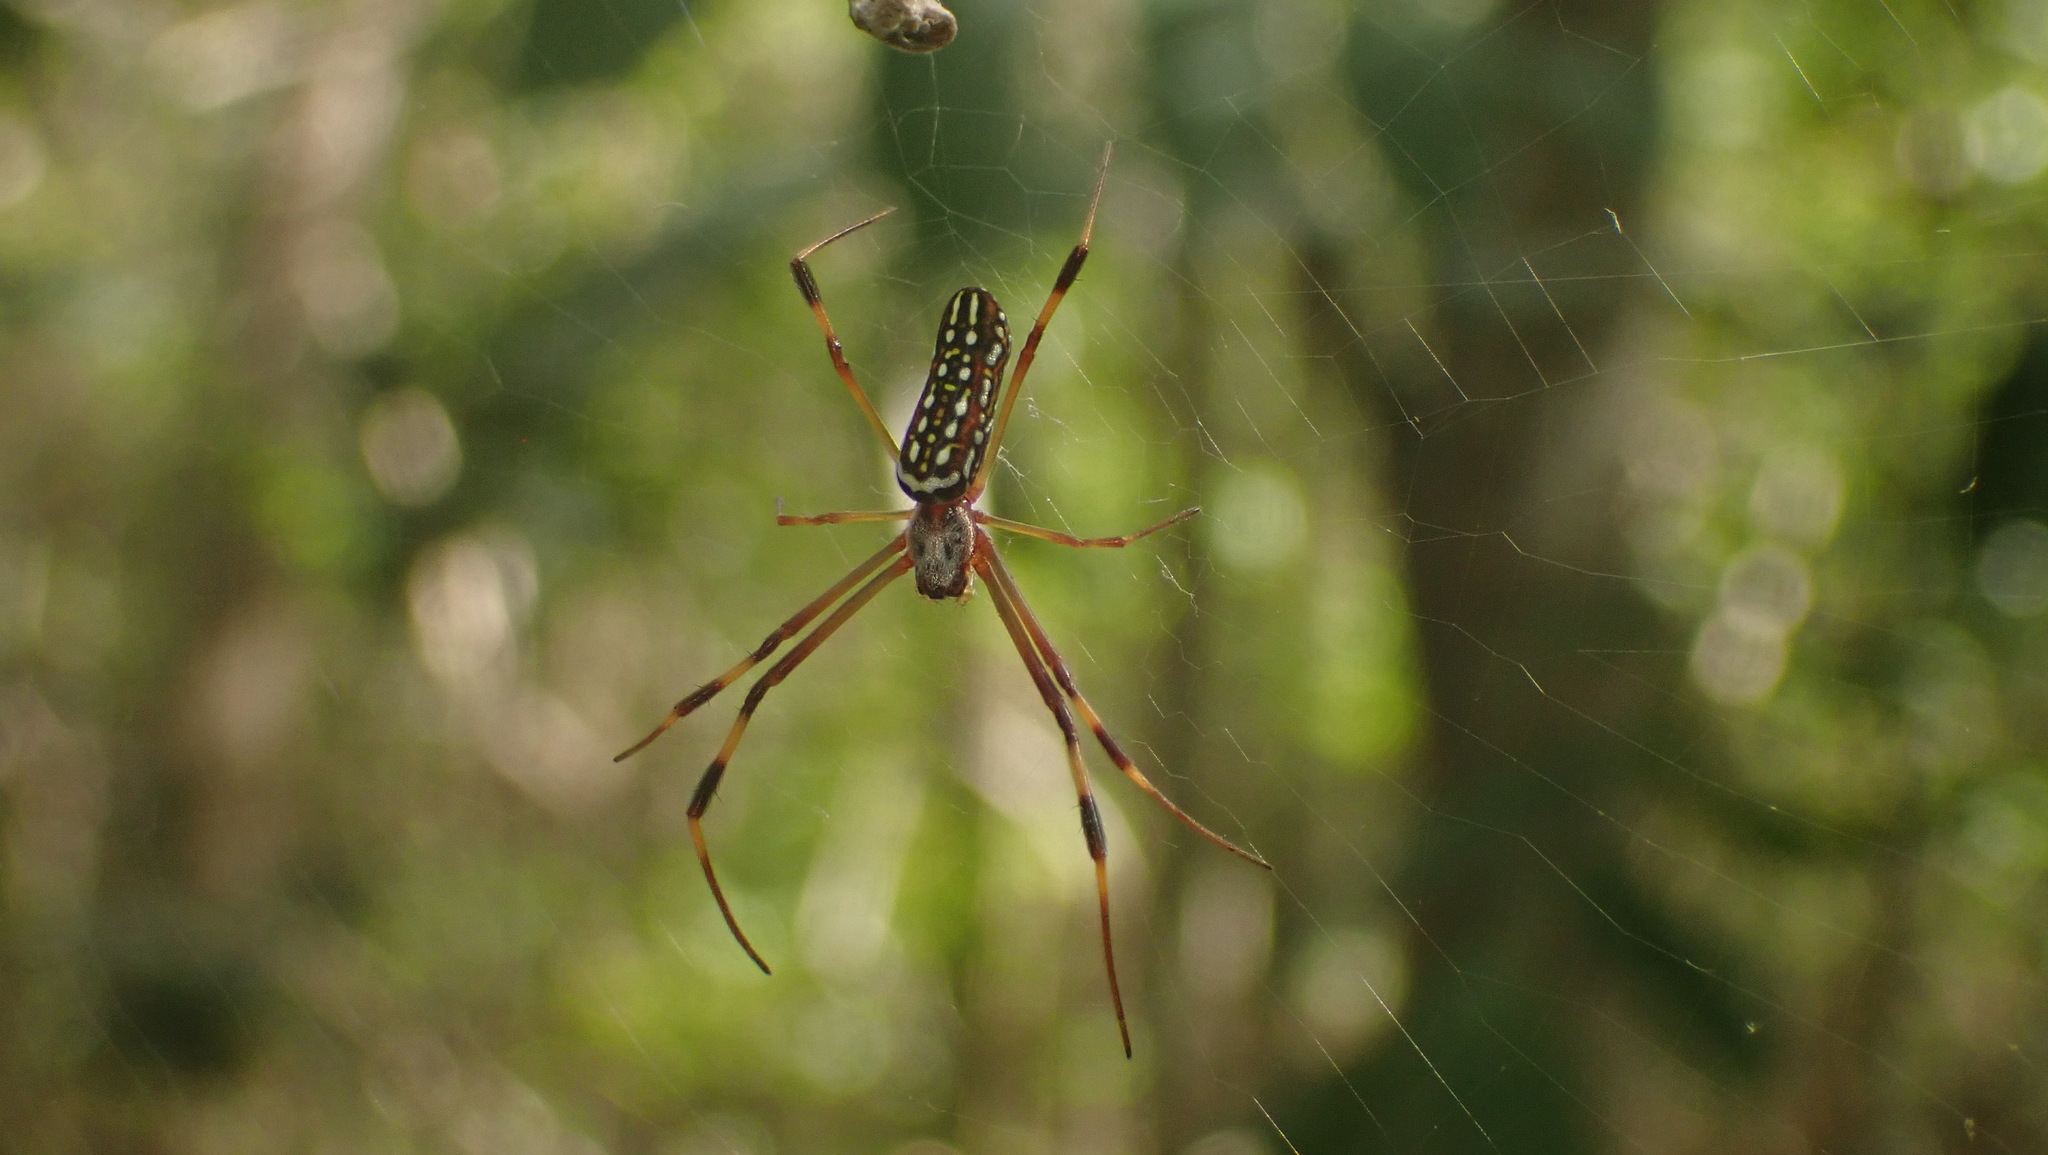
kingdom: Animalia
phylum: Arthropoda
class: Arachnida
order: Araneae
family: Araneidae
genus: Trichonephila
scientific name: Trichonephila clavipes
